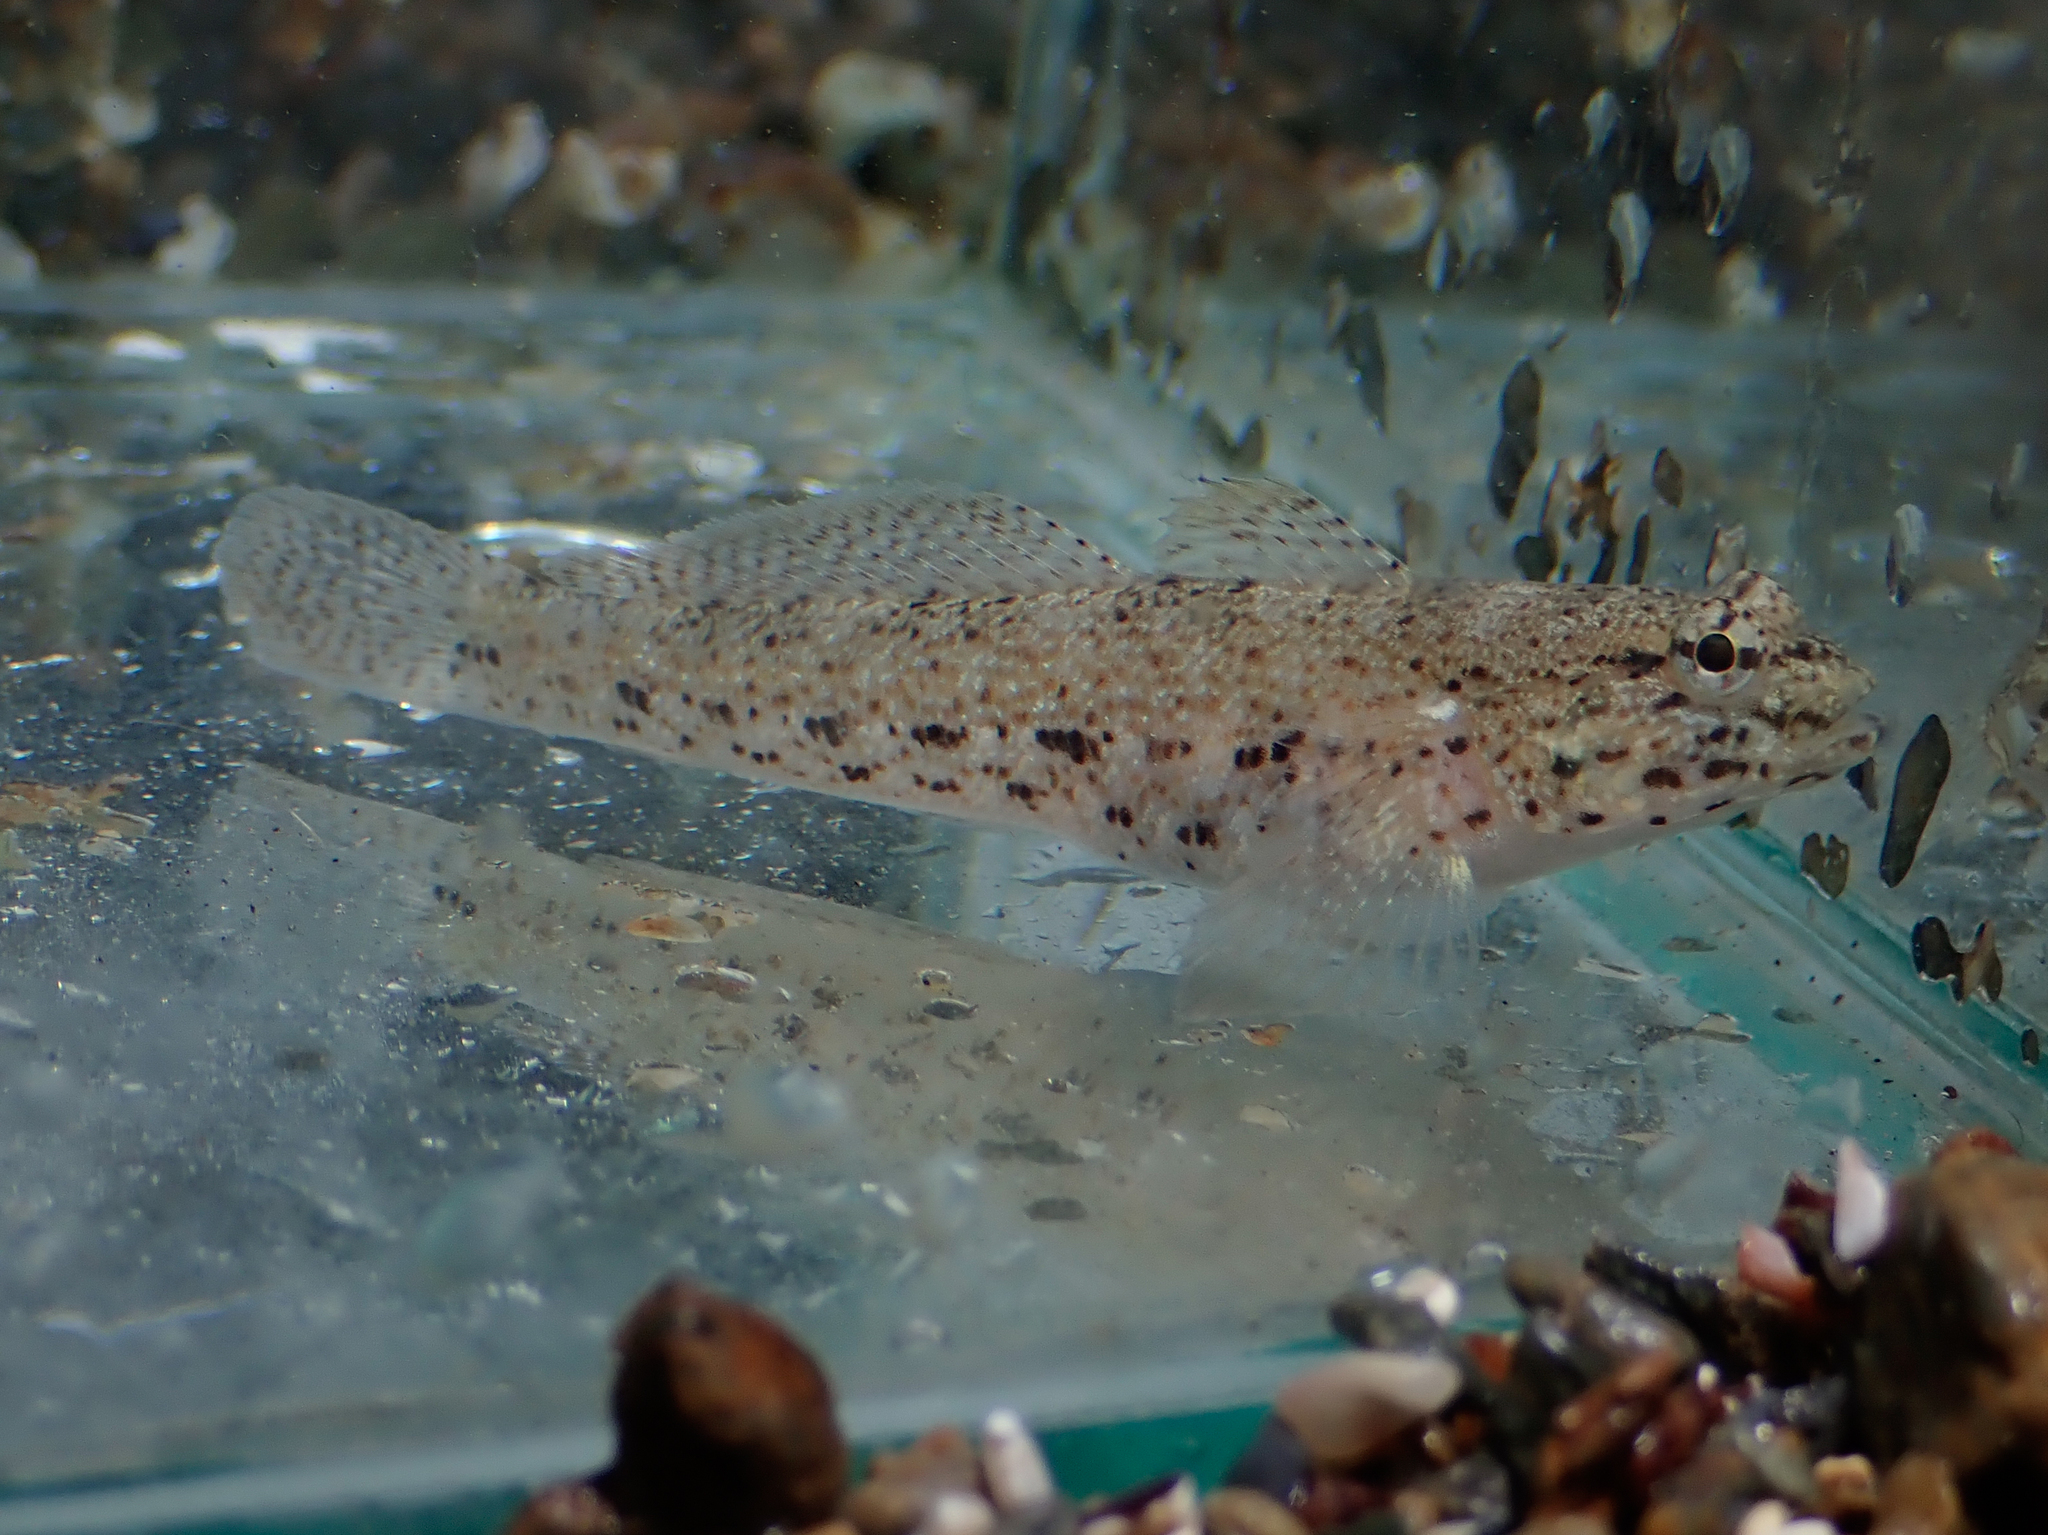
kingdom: Animalia
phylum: Chordata
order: Perciformes
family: Gobiidae
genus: Gobius
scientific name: Gobius incognitus
